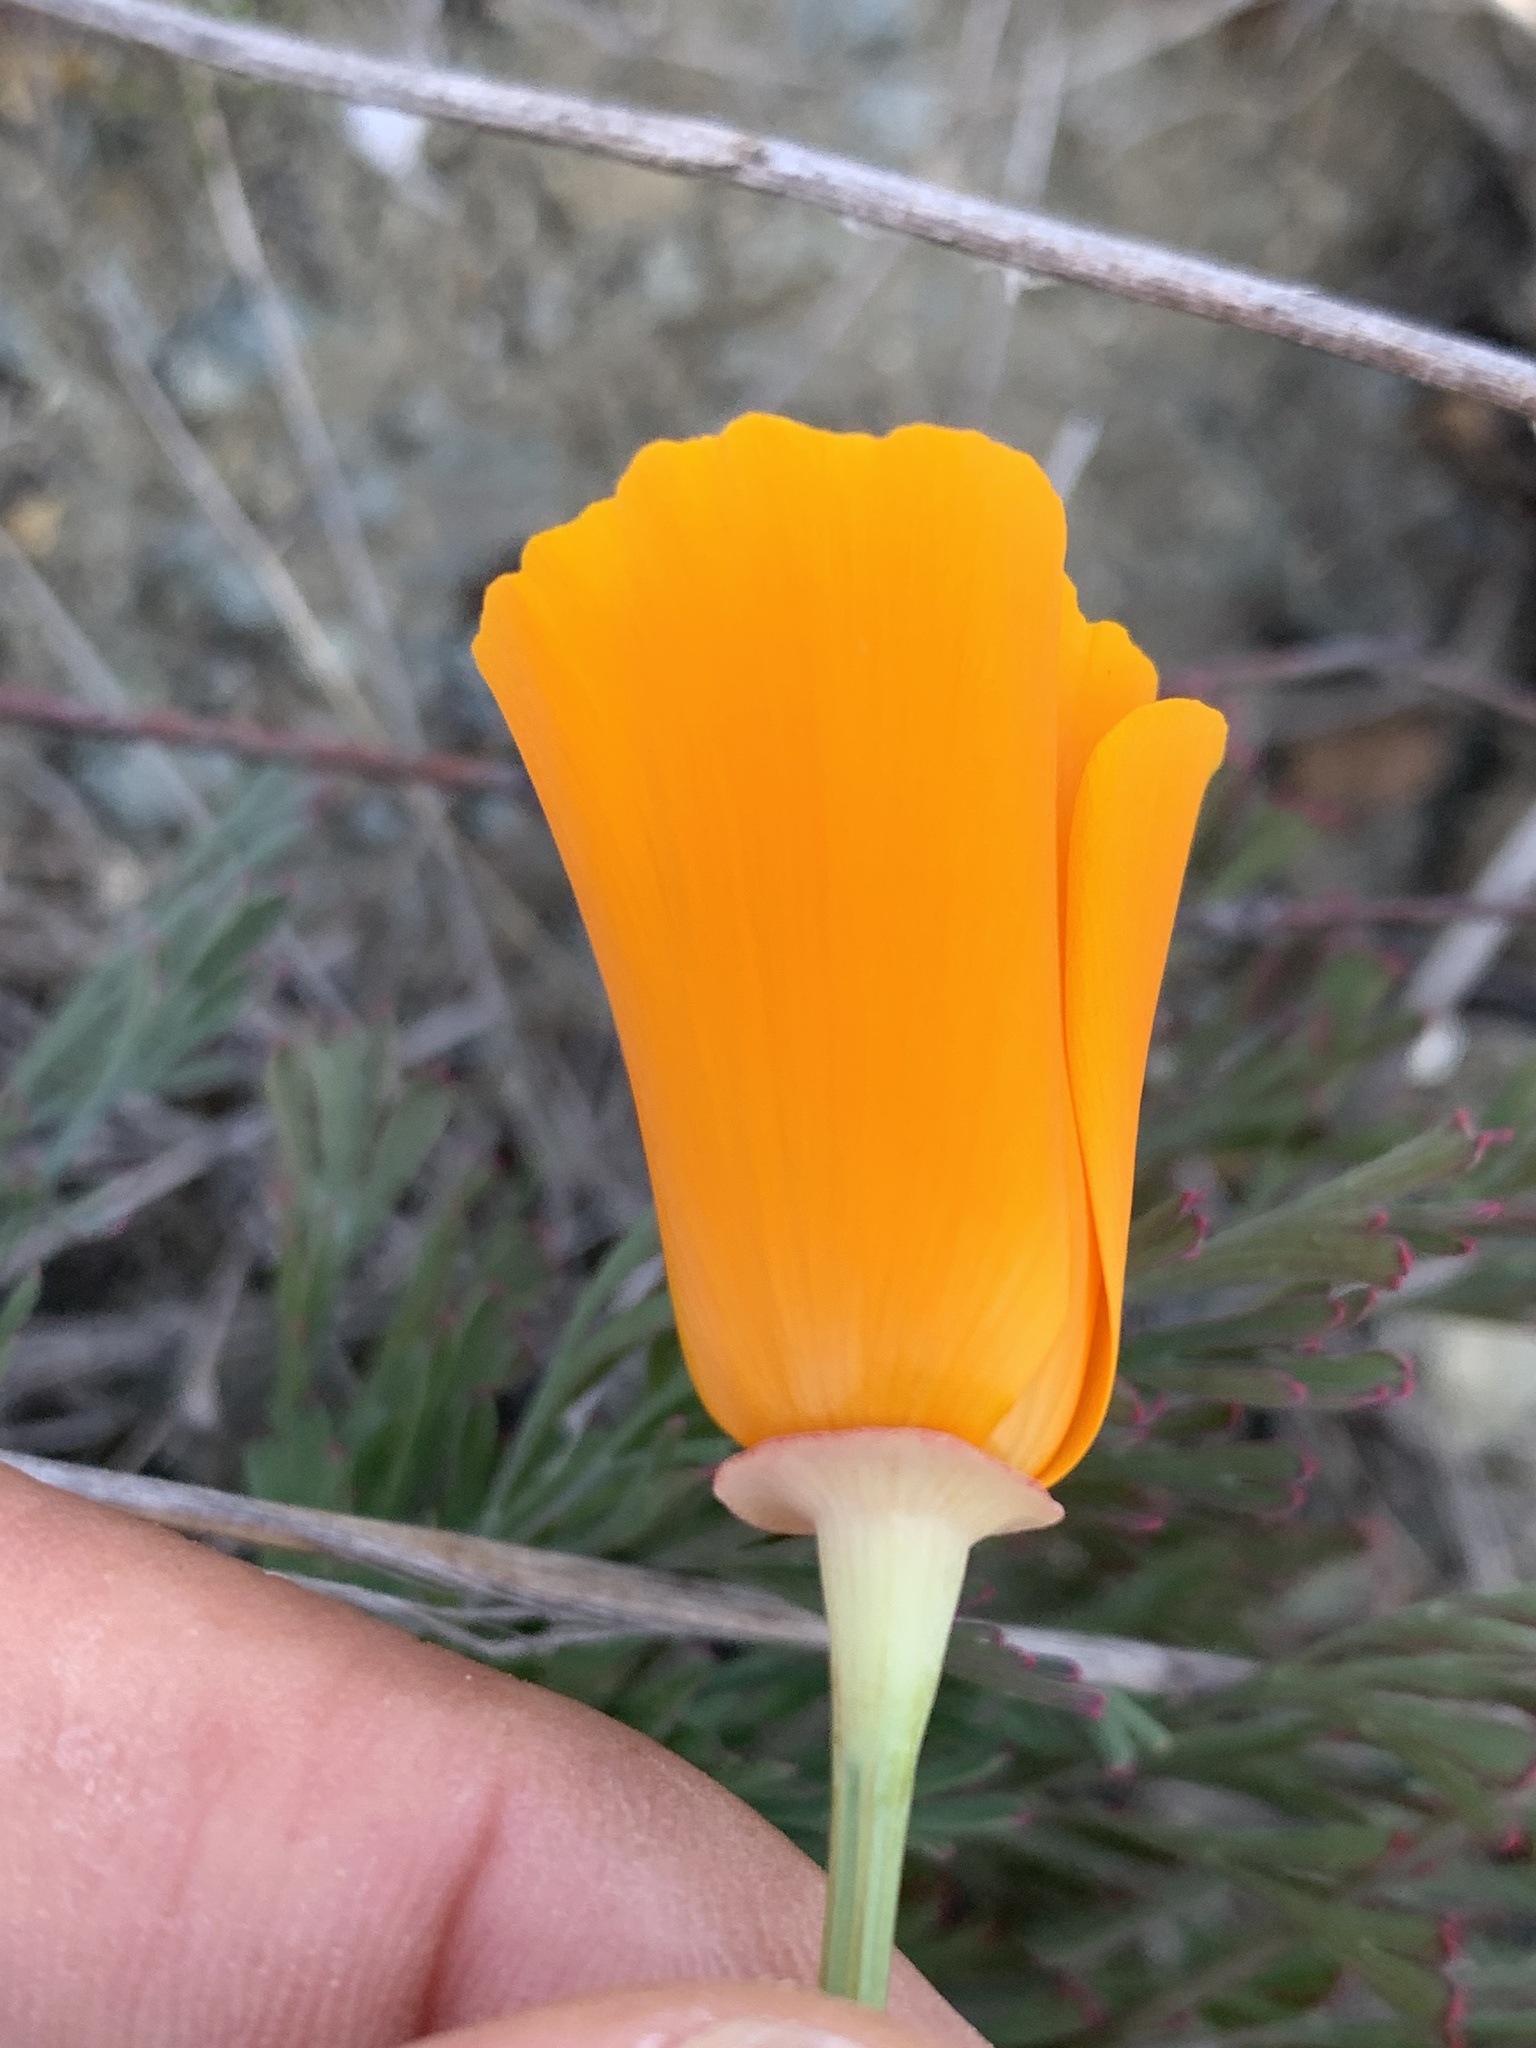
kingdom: Plantae
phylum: Tracheophyta
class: Magnoliopsida
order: Ranunculales
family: Papaveraceae
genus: Eschscholzia
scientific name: Eschscholzia californica
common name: California poppy
